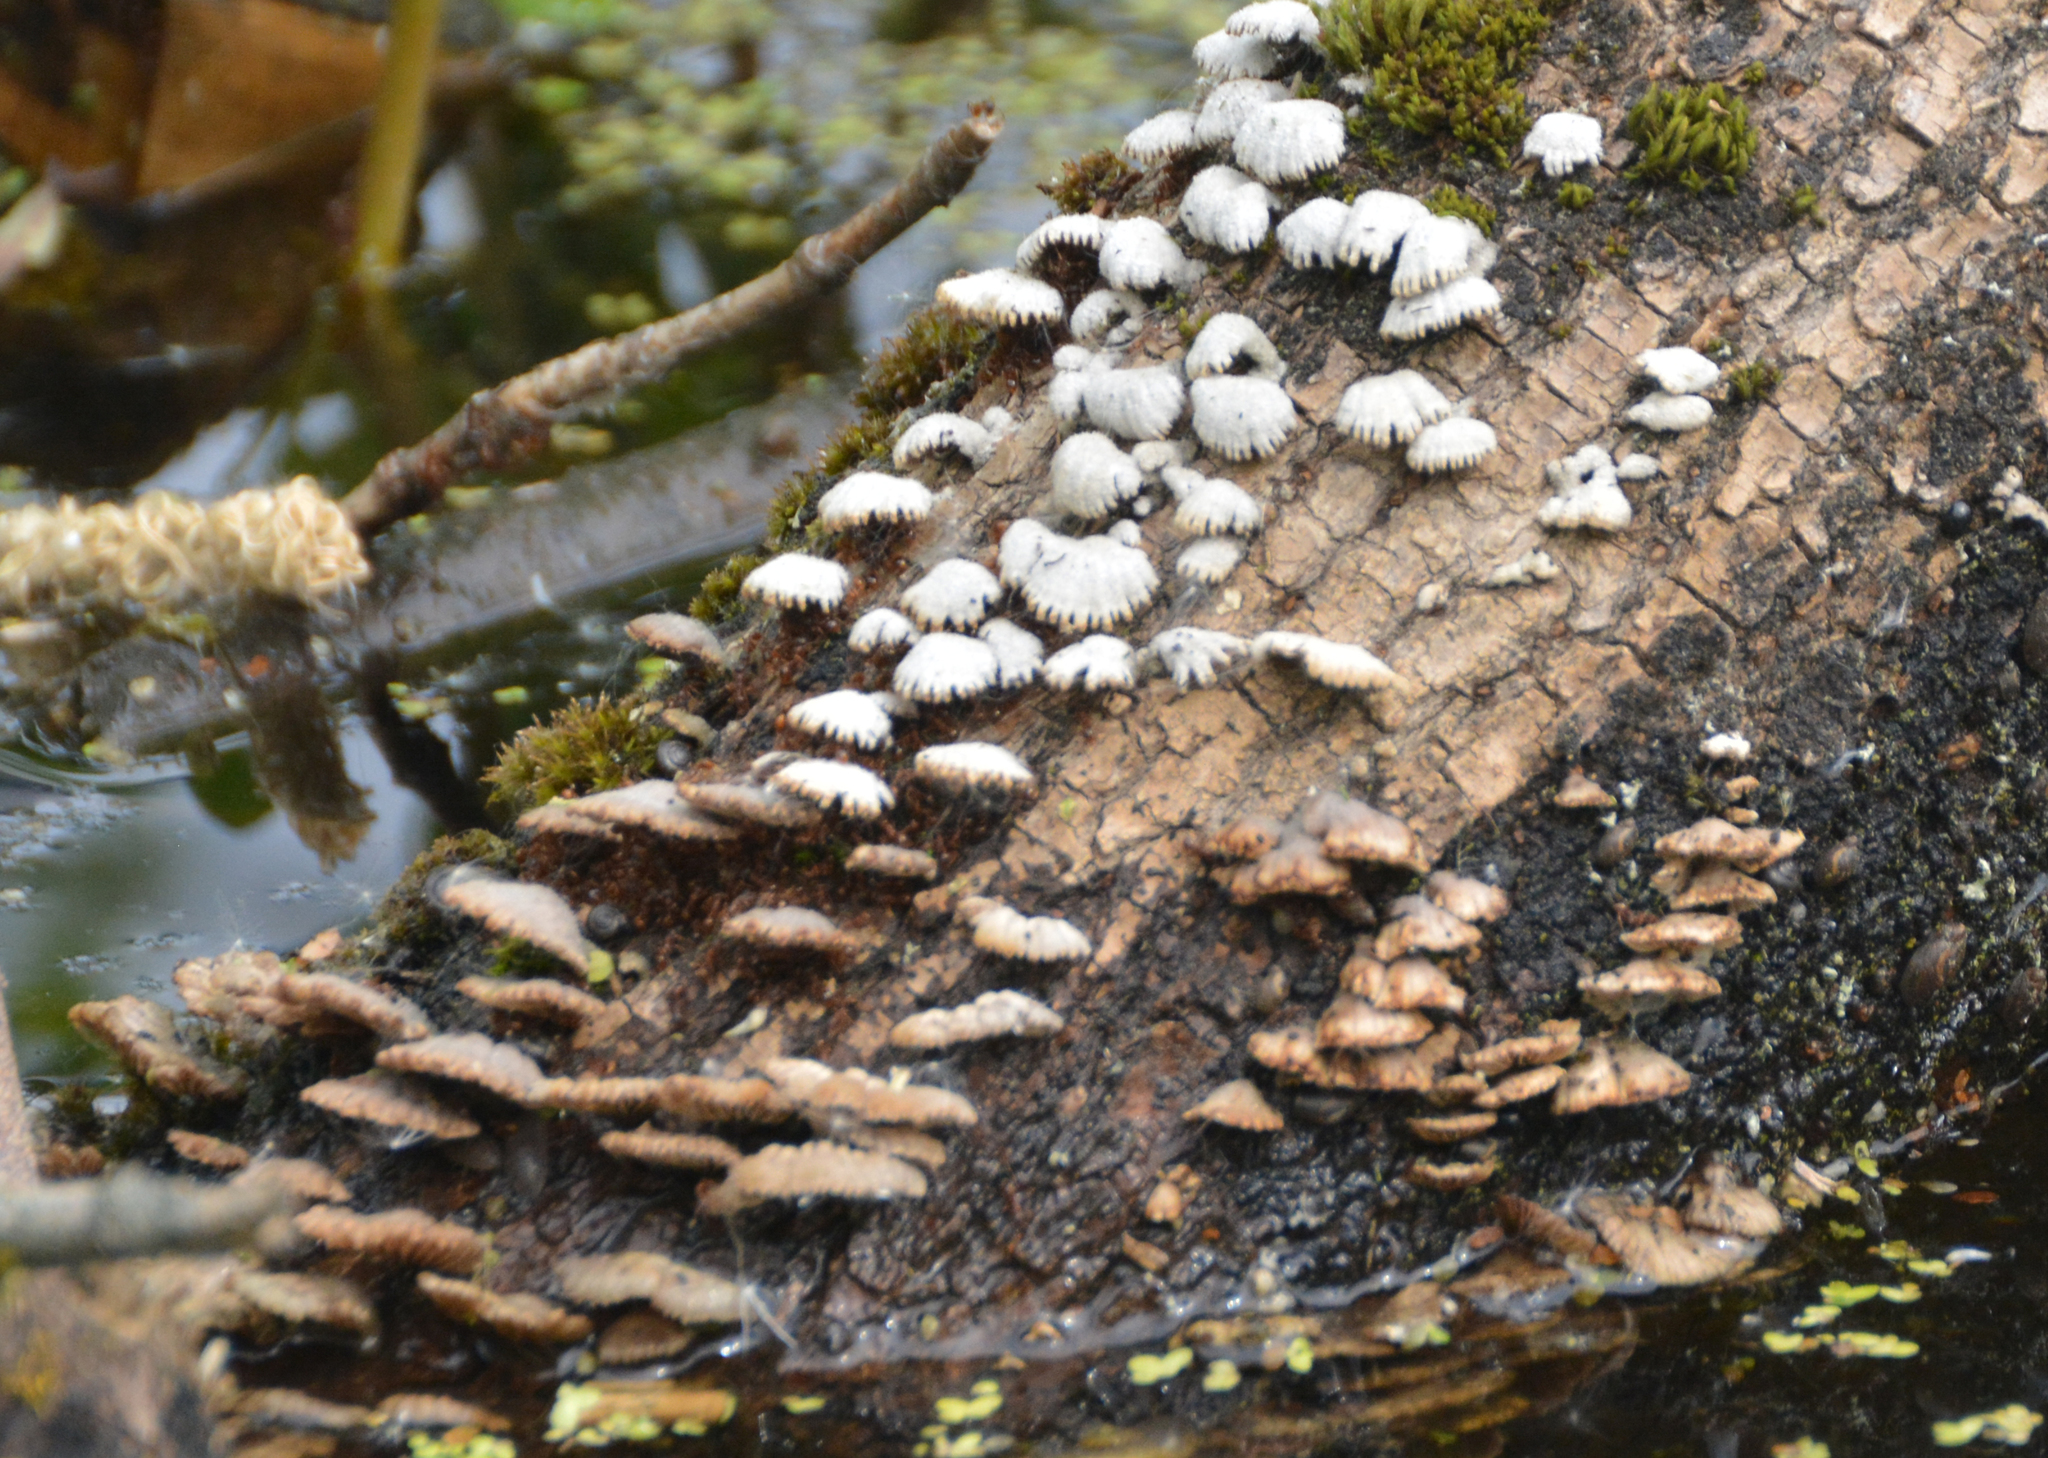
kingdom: Fungi
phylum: Basidiomycota
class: Agaricomycetes
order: Agaricales
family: Schizophyllaceae
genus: Schizophyllum
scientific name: Schizophyllum commune
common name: Common porecrust
